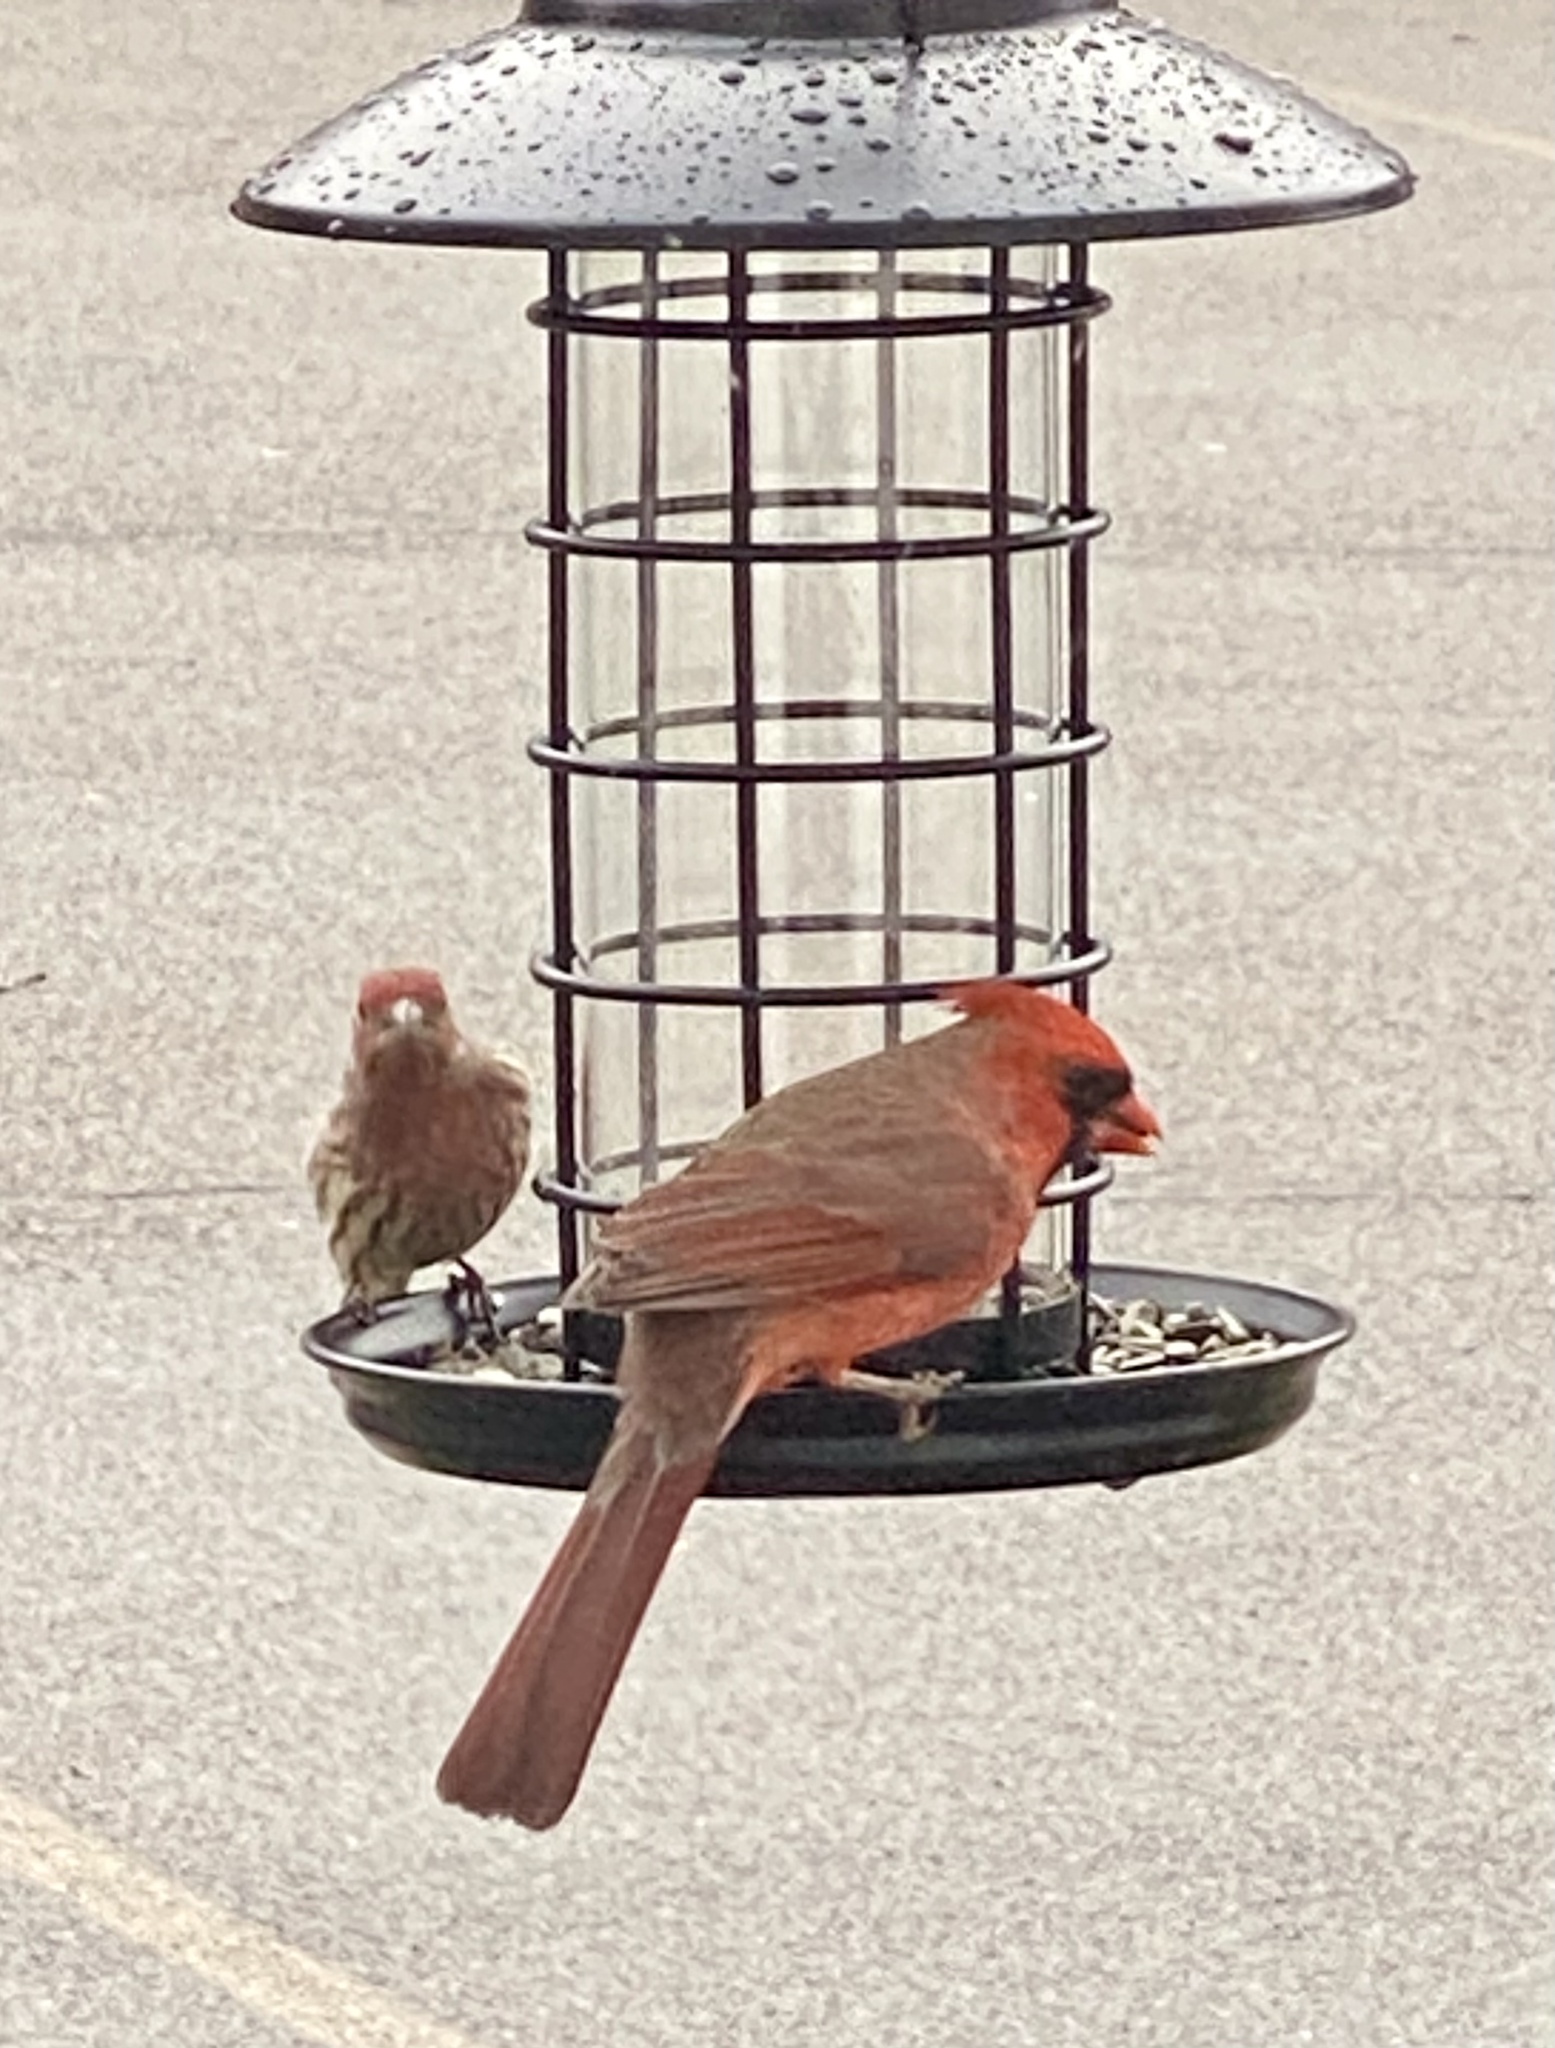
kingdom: Animalia
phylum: Chordata
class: Aves
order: Passeriformes
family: Cardinalidae
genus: Cardinalis
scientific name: Cardinalis cardinalis
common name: Northern cardinal
